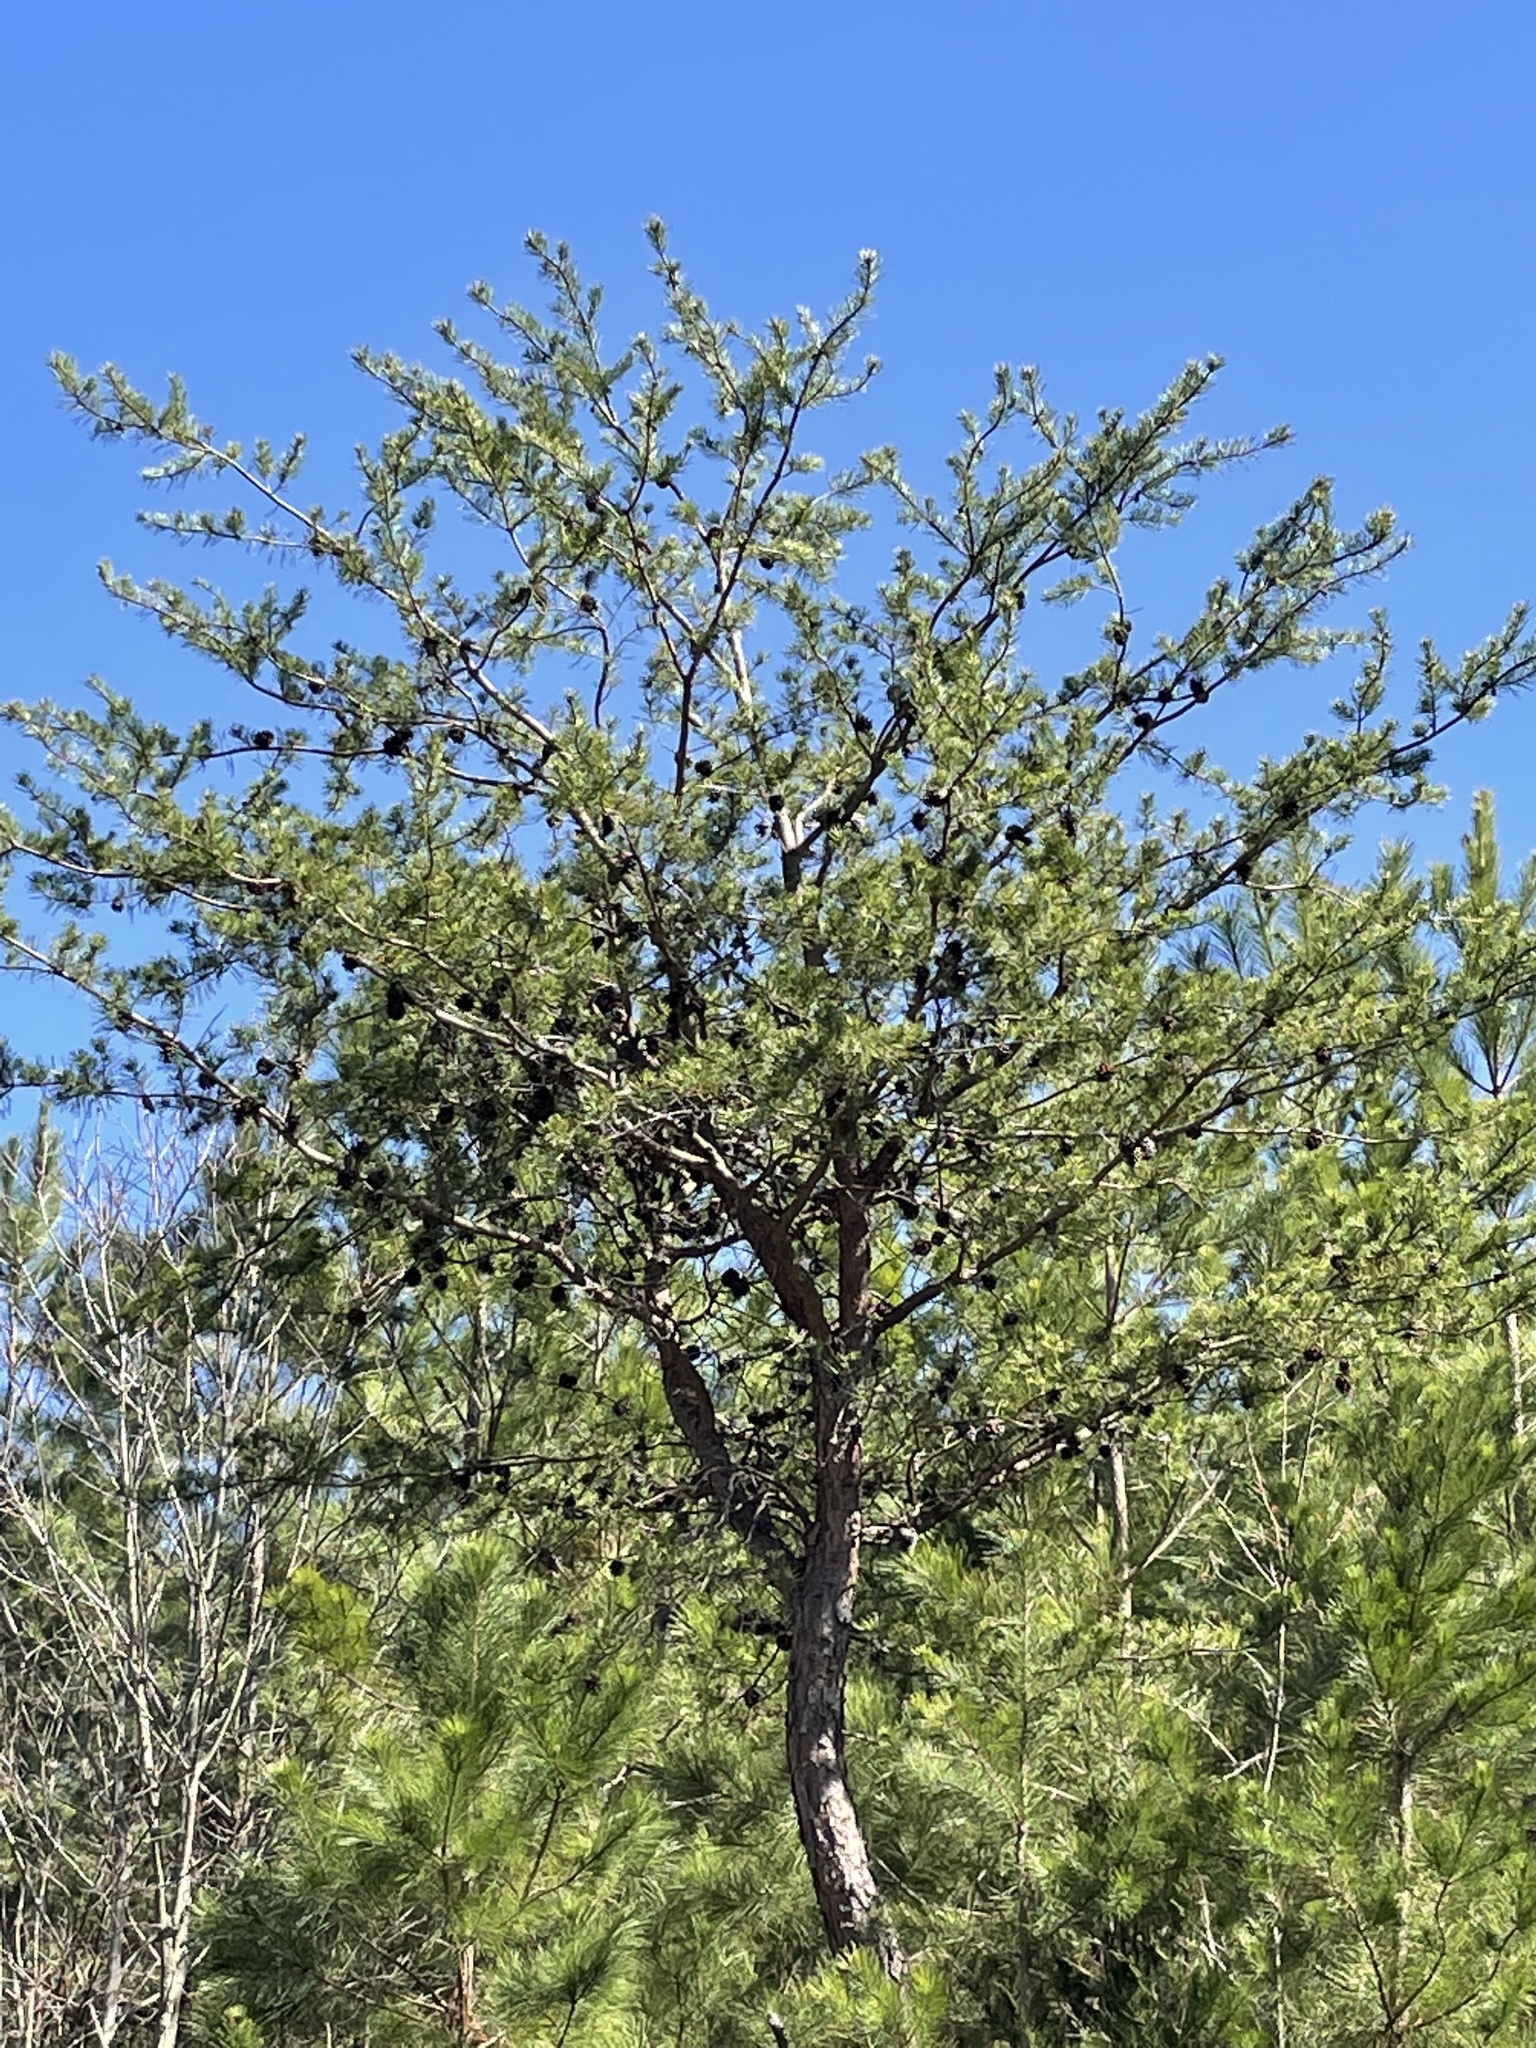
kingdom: Plantae
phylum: Tracheophyta
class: Pinopsida
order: Pinales
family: Pinaceae
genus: Pinus
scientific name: Pinus virginiana
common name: Scrub pine
